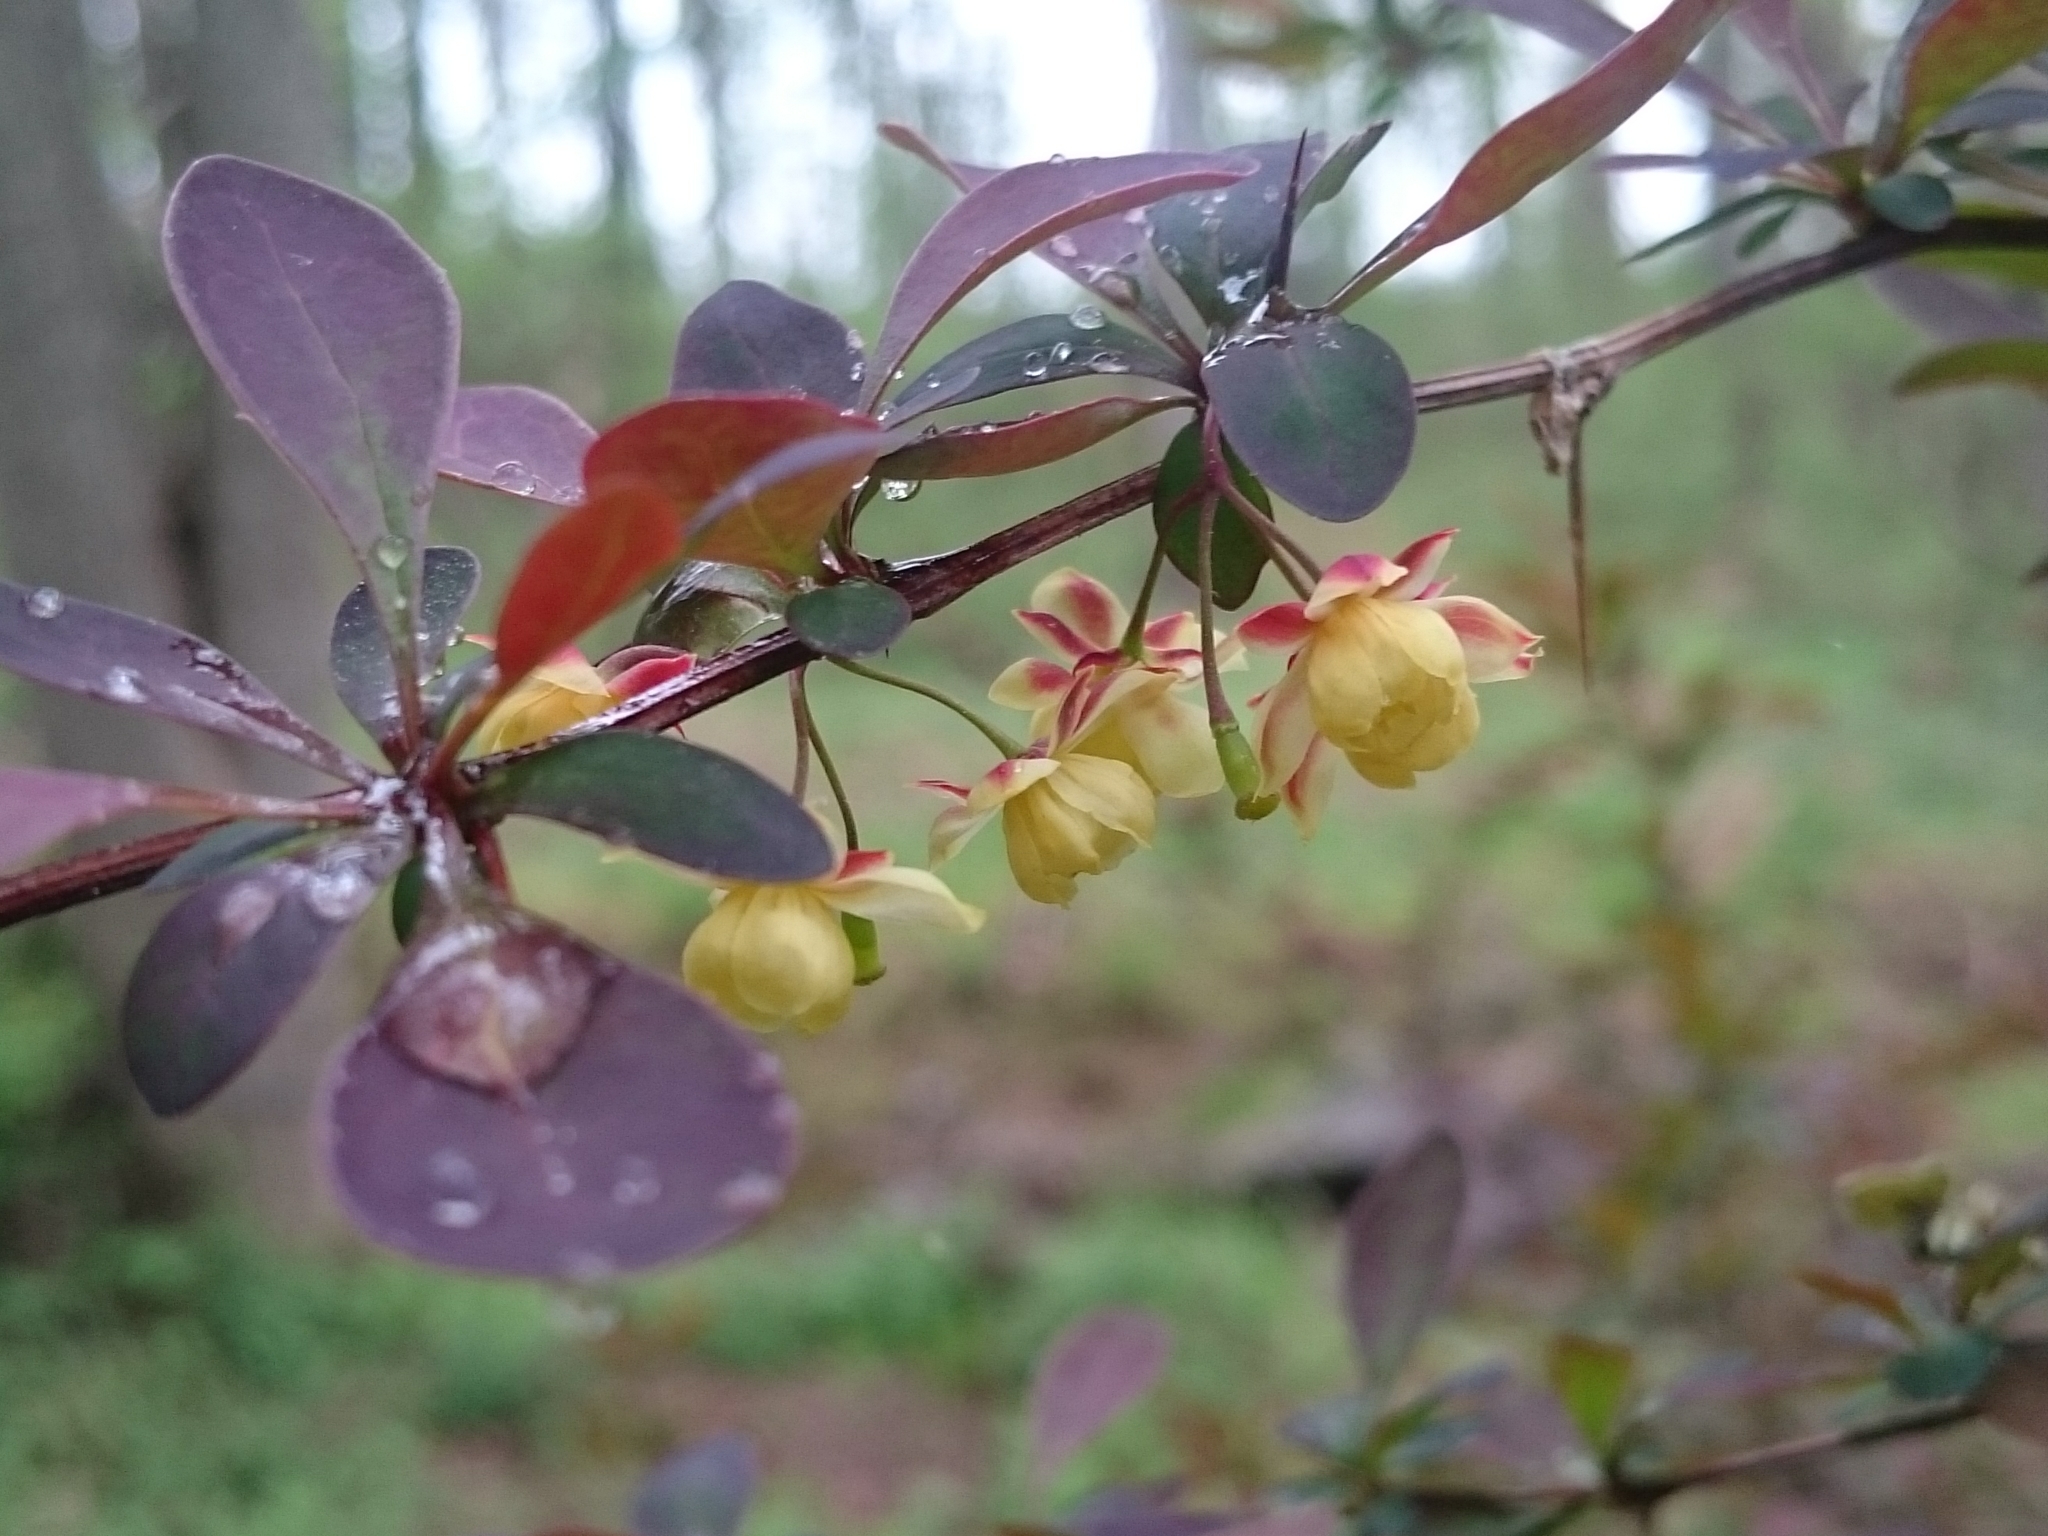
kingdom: Plantae
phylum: Tracheophyta
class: Magnoliopsida
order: Ranunculales
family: Berberidaceae
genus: Berberis
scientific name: Berberis thunbergii
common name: Japanese barberry
